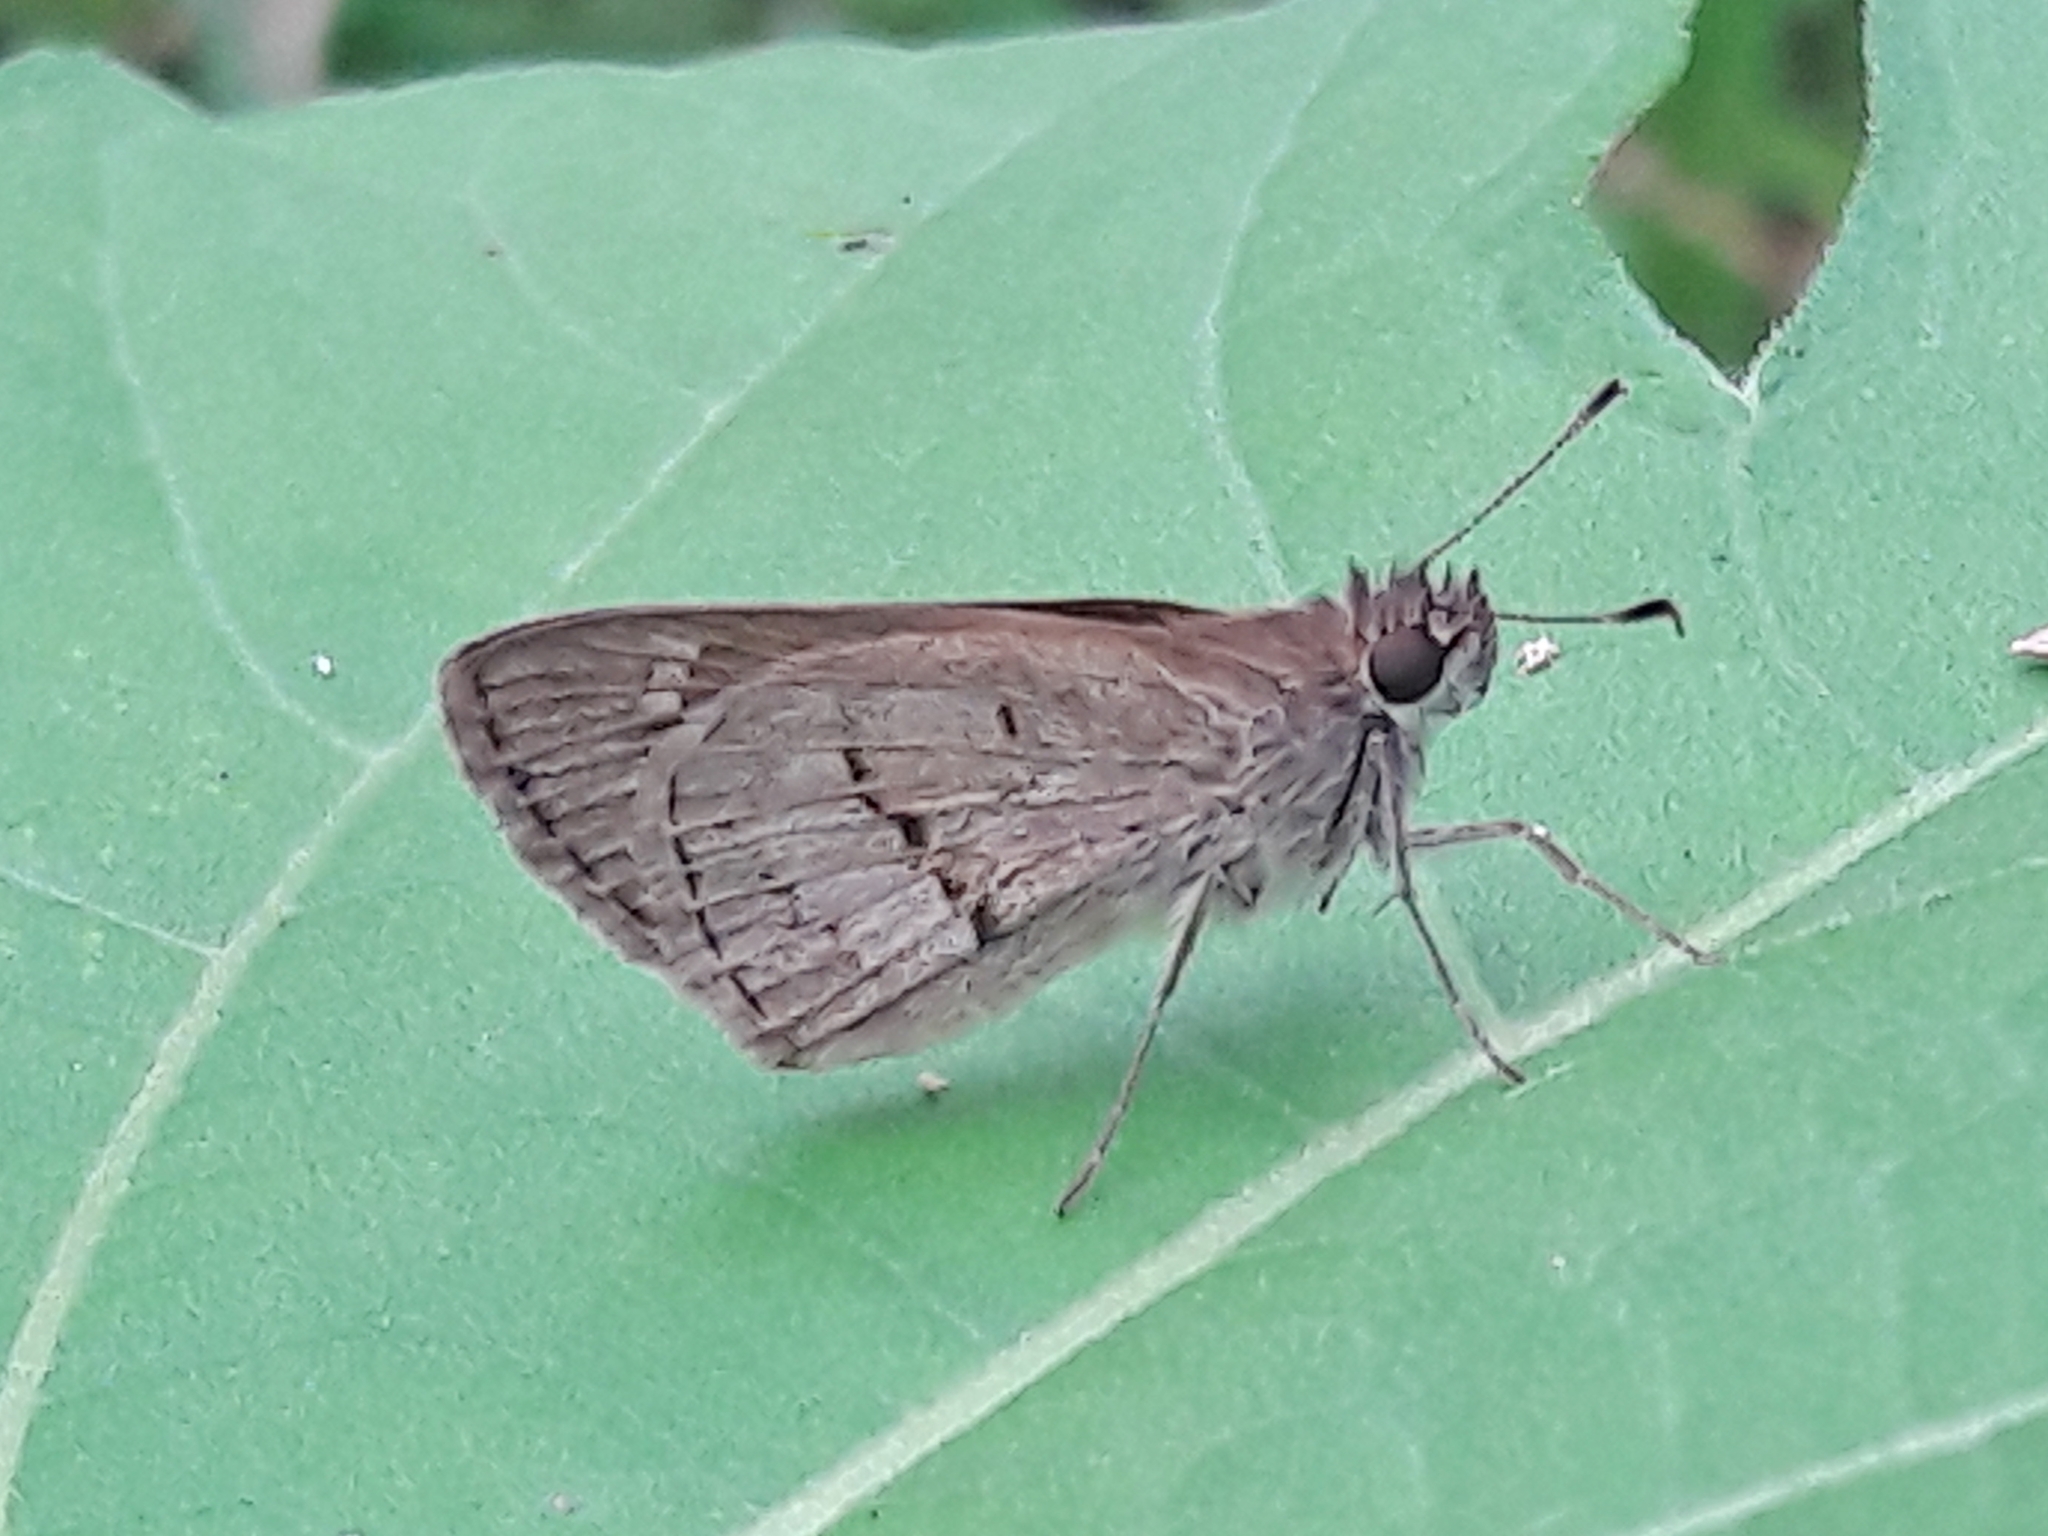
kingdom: Animalia
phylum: Arthropoda
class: Insecta
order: Lepidoptera
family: Hesperiidae
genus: Cymaenes
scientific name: Cymaenes gisca
